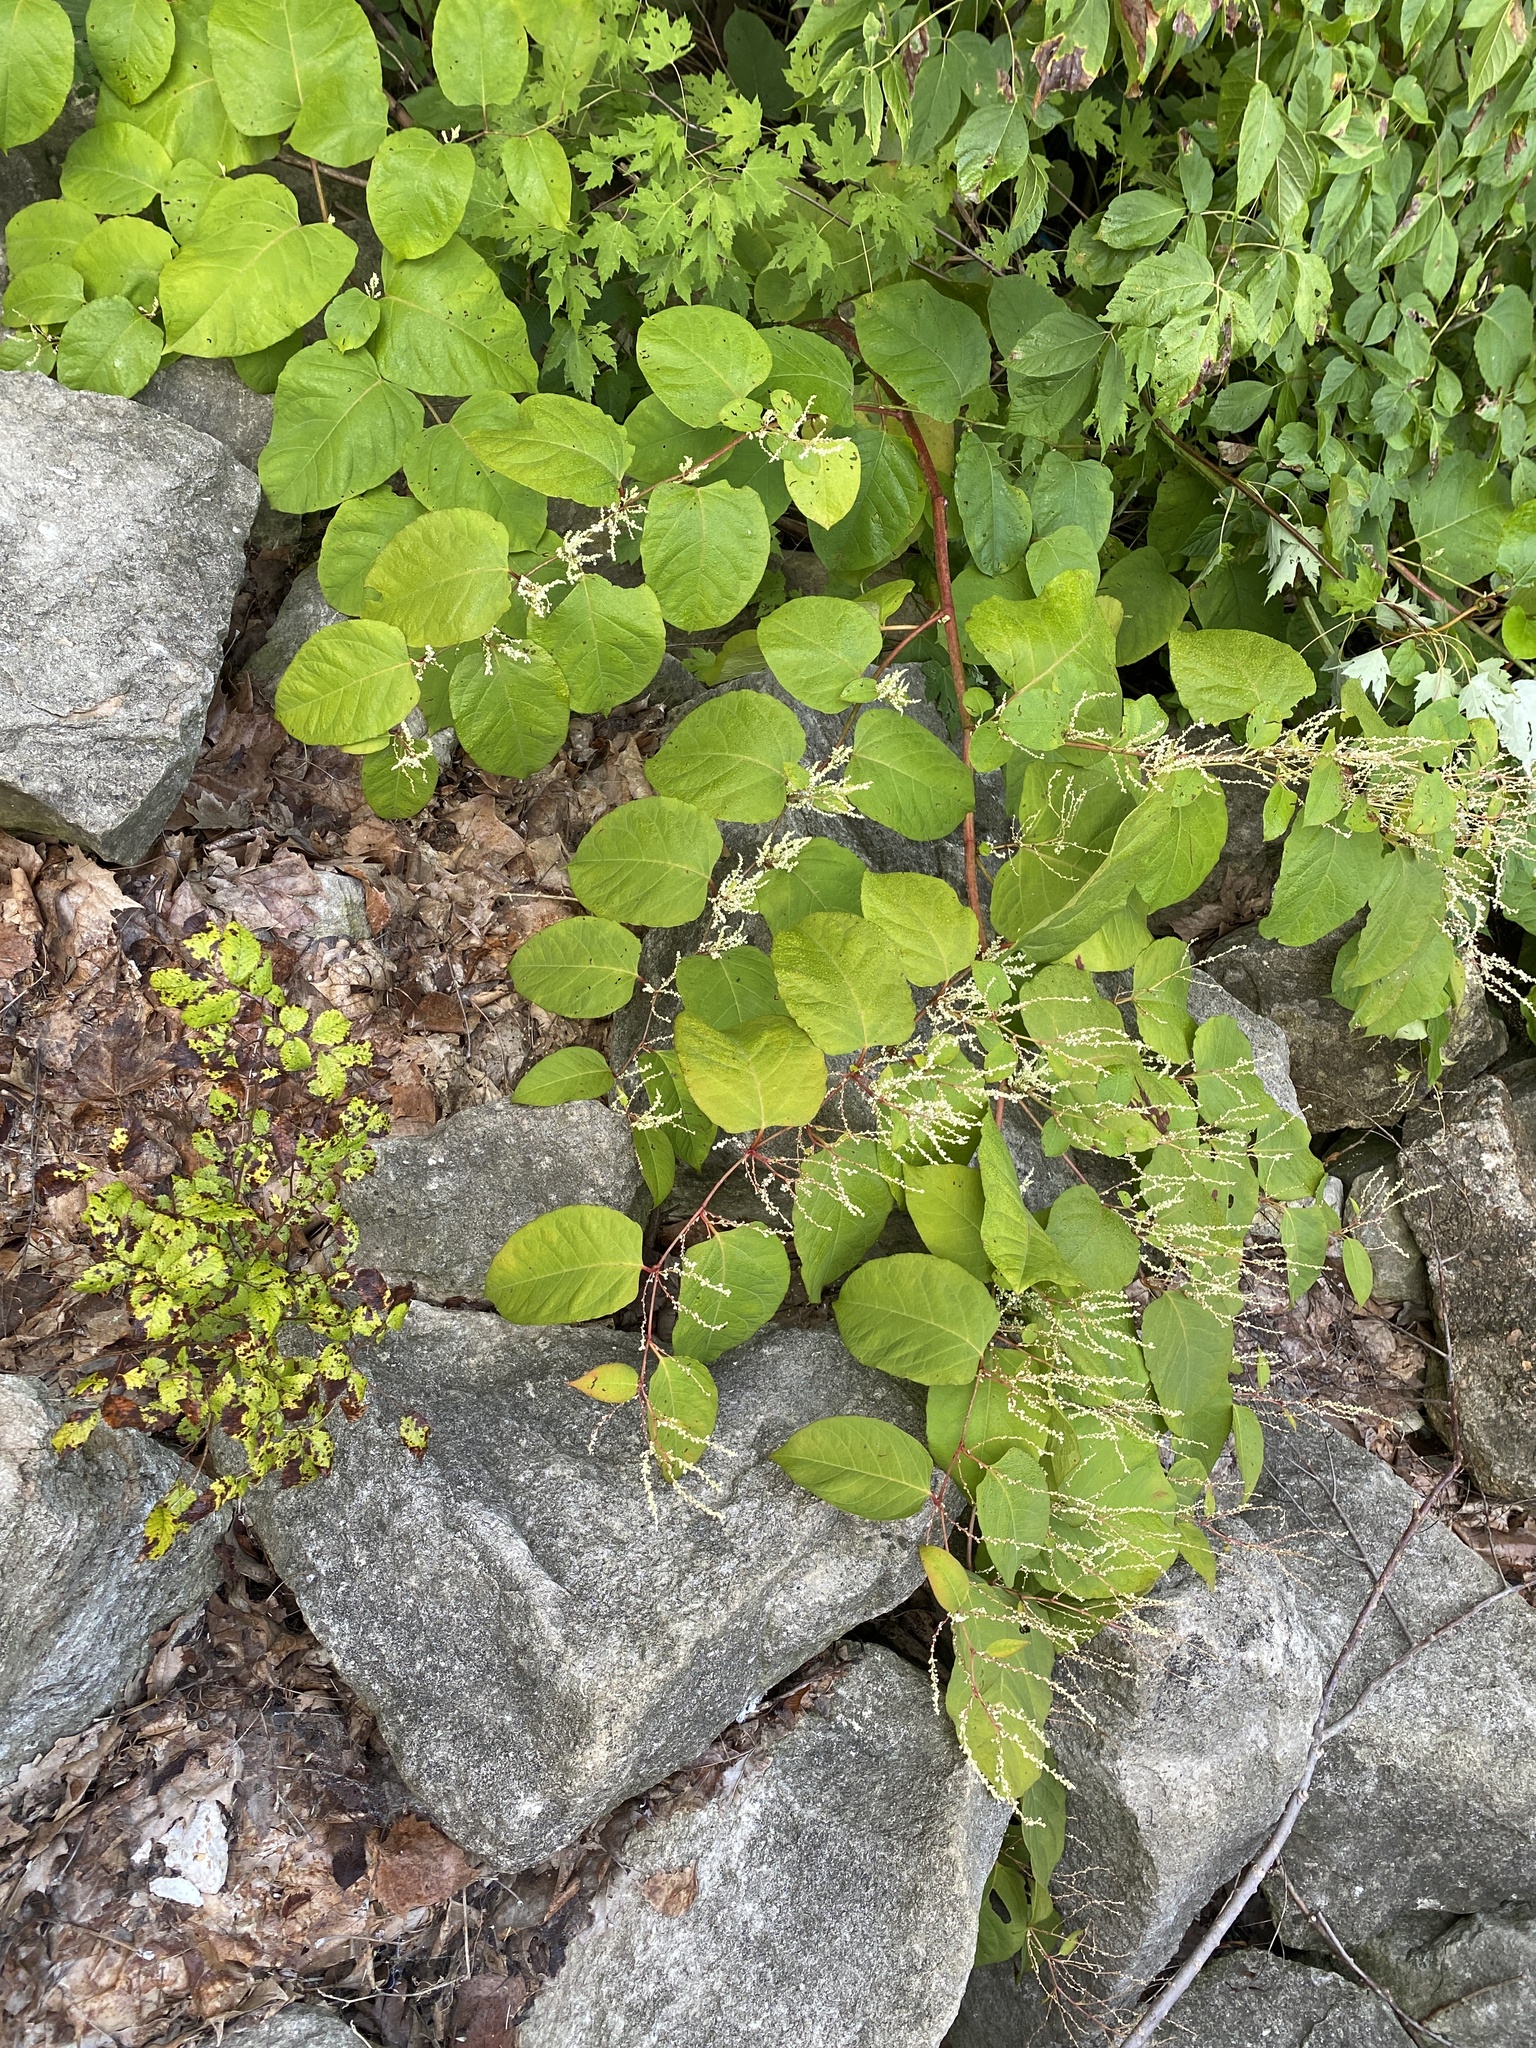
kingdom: Plantae
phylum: Tracheophyta
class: Magnoliopsida
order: Caryophyllales
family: Polygonaceae
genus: Reynoutria
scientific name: Reynoutria japonica
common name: Japanese knotweed
